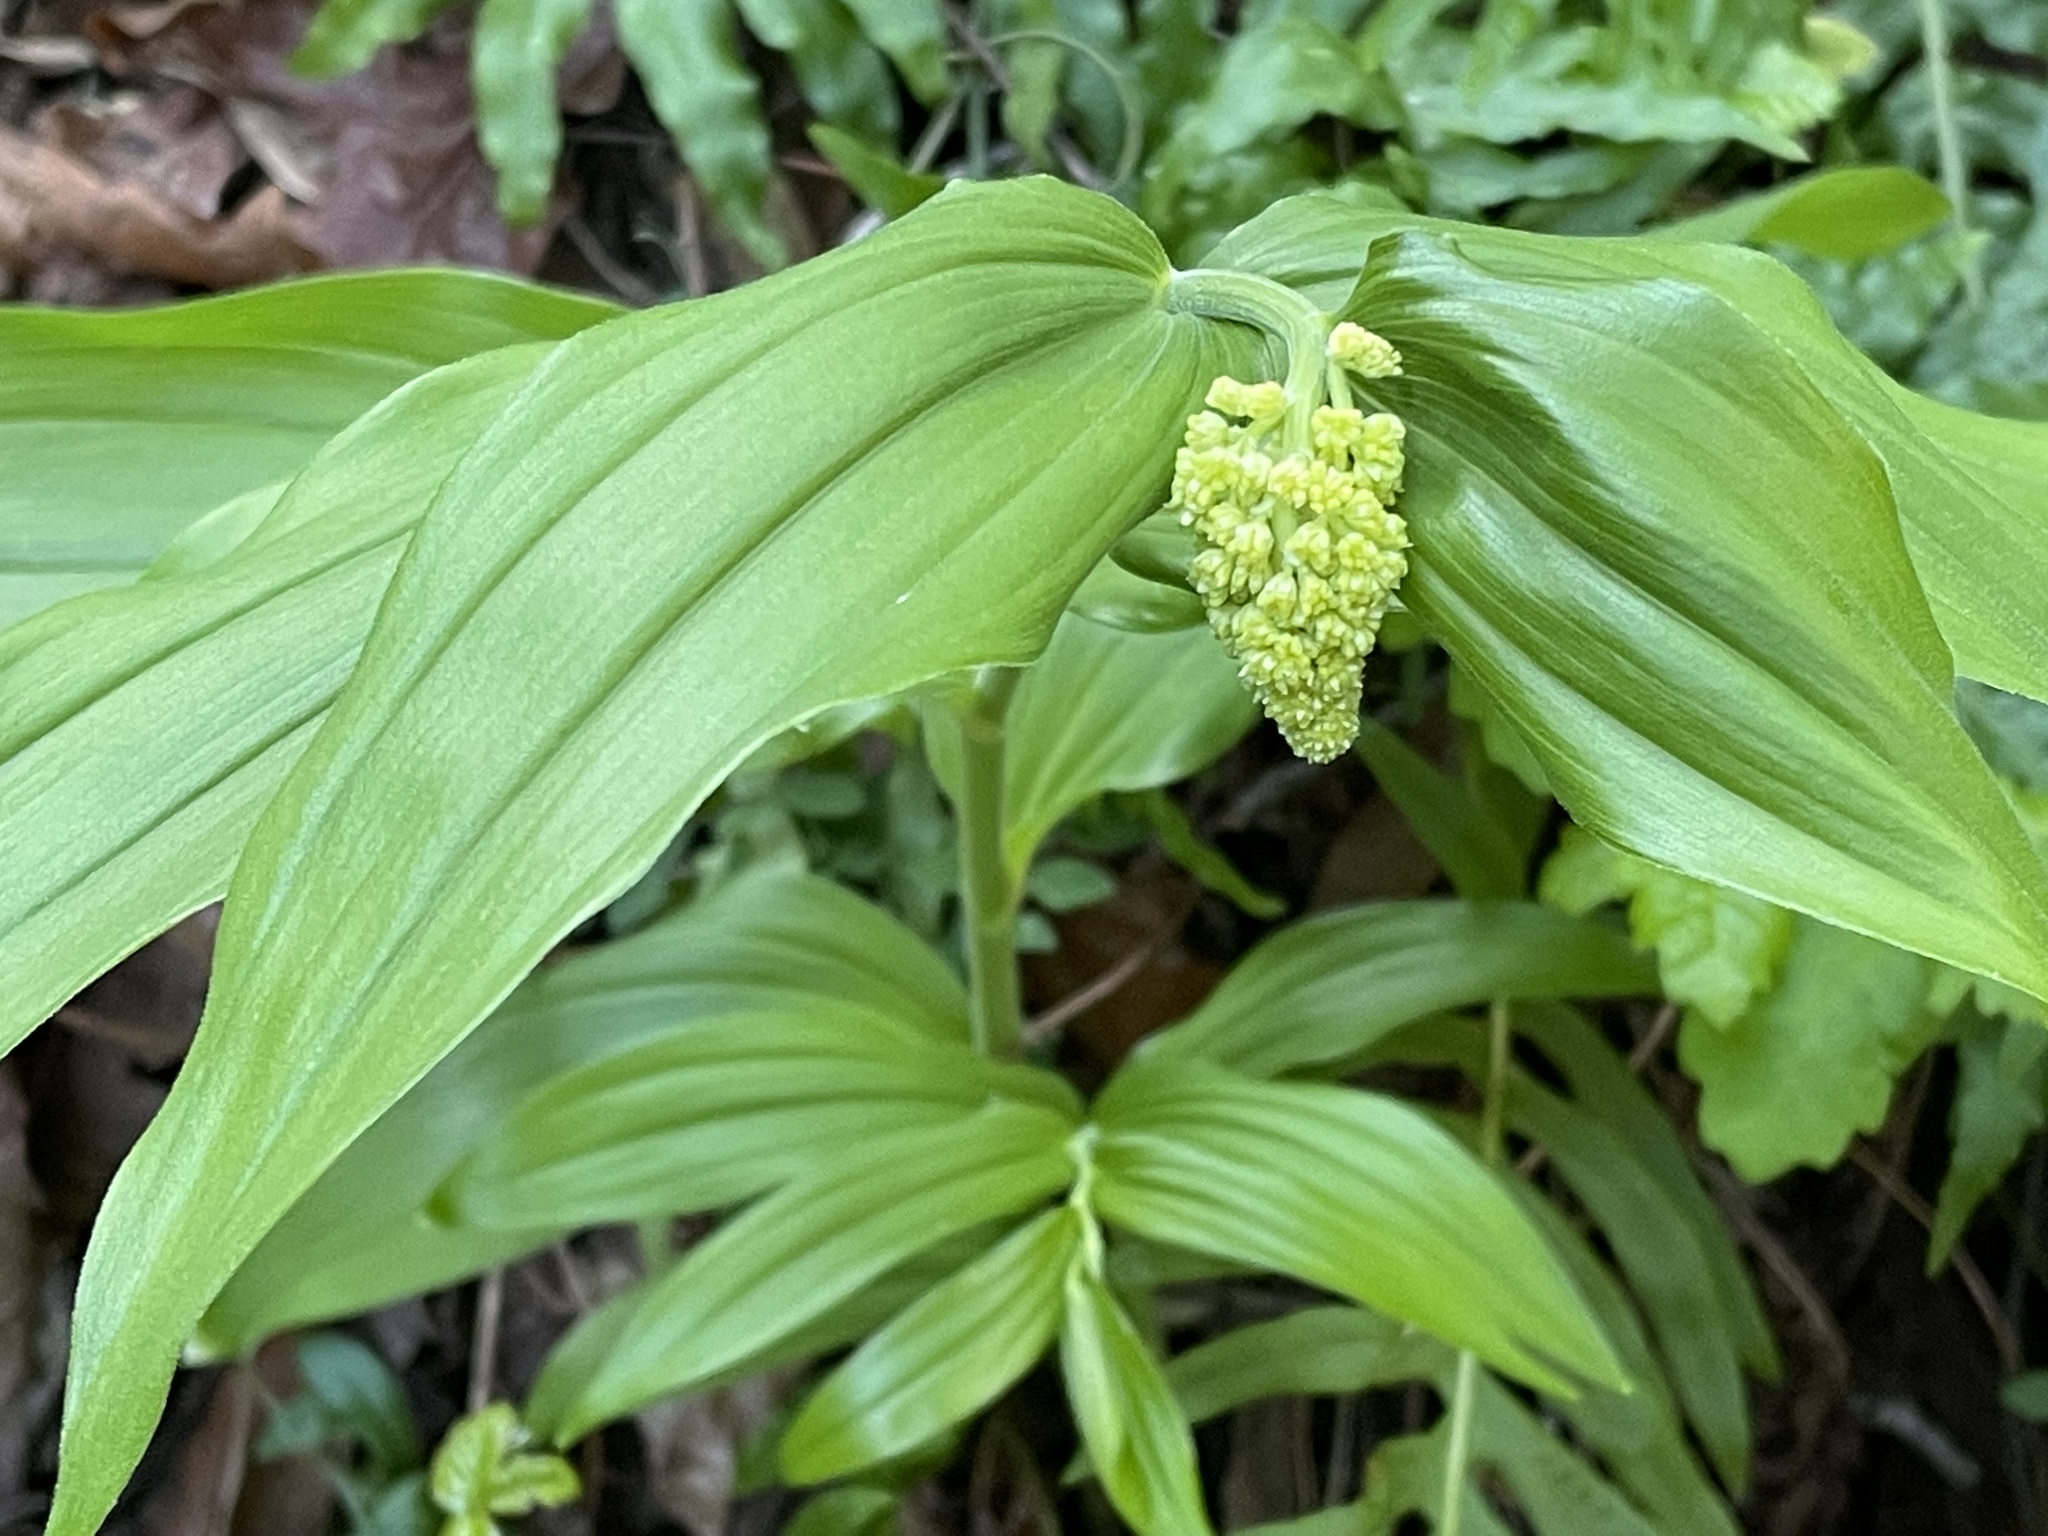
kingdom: Plantae
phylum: Tracheophyta
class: Liliopsida
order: Asparagales
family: Asparagaceae
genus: Maianthemum
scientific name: Maianthemum racemosum
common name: False spikenard
